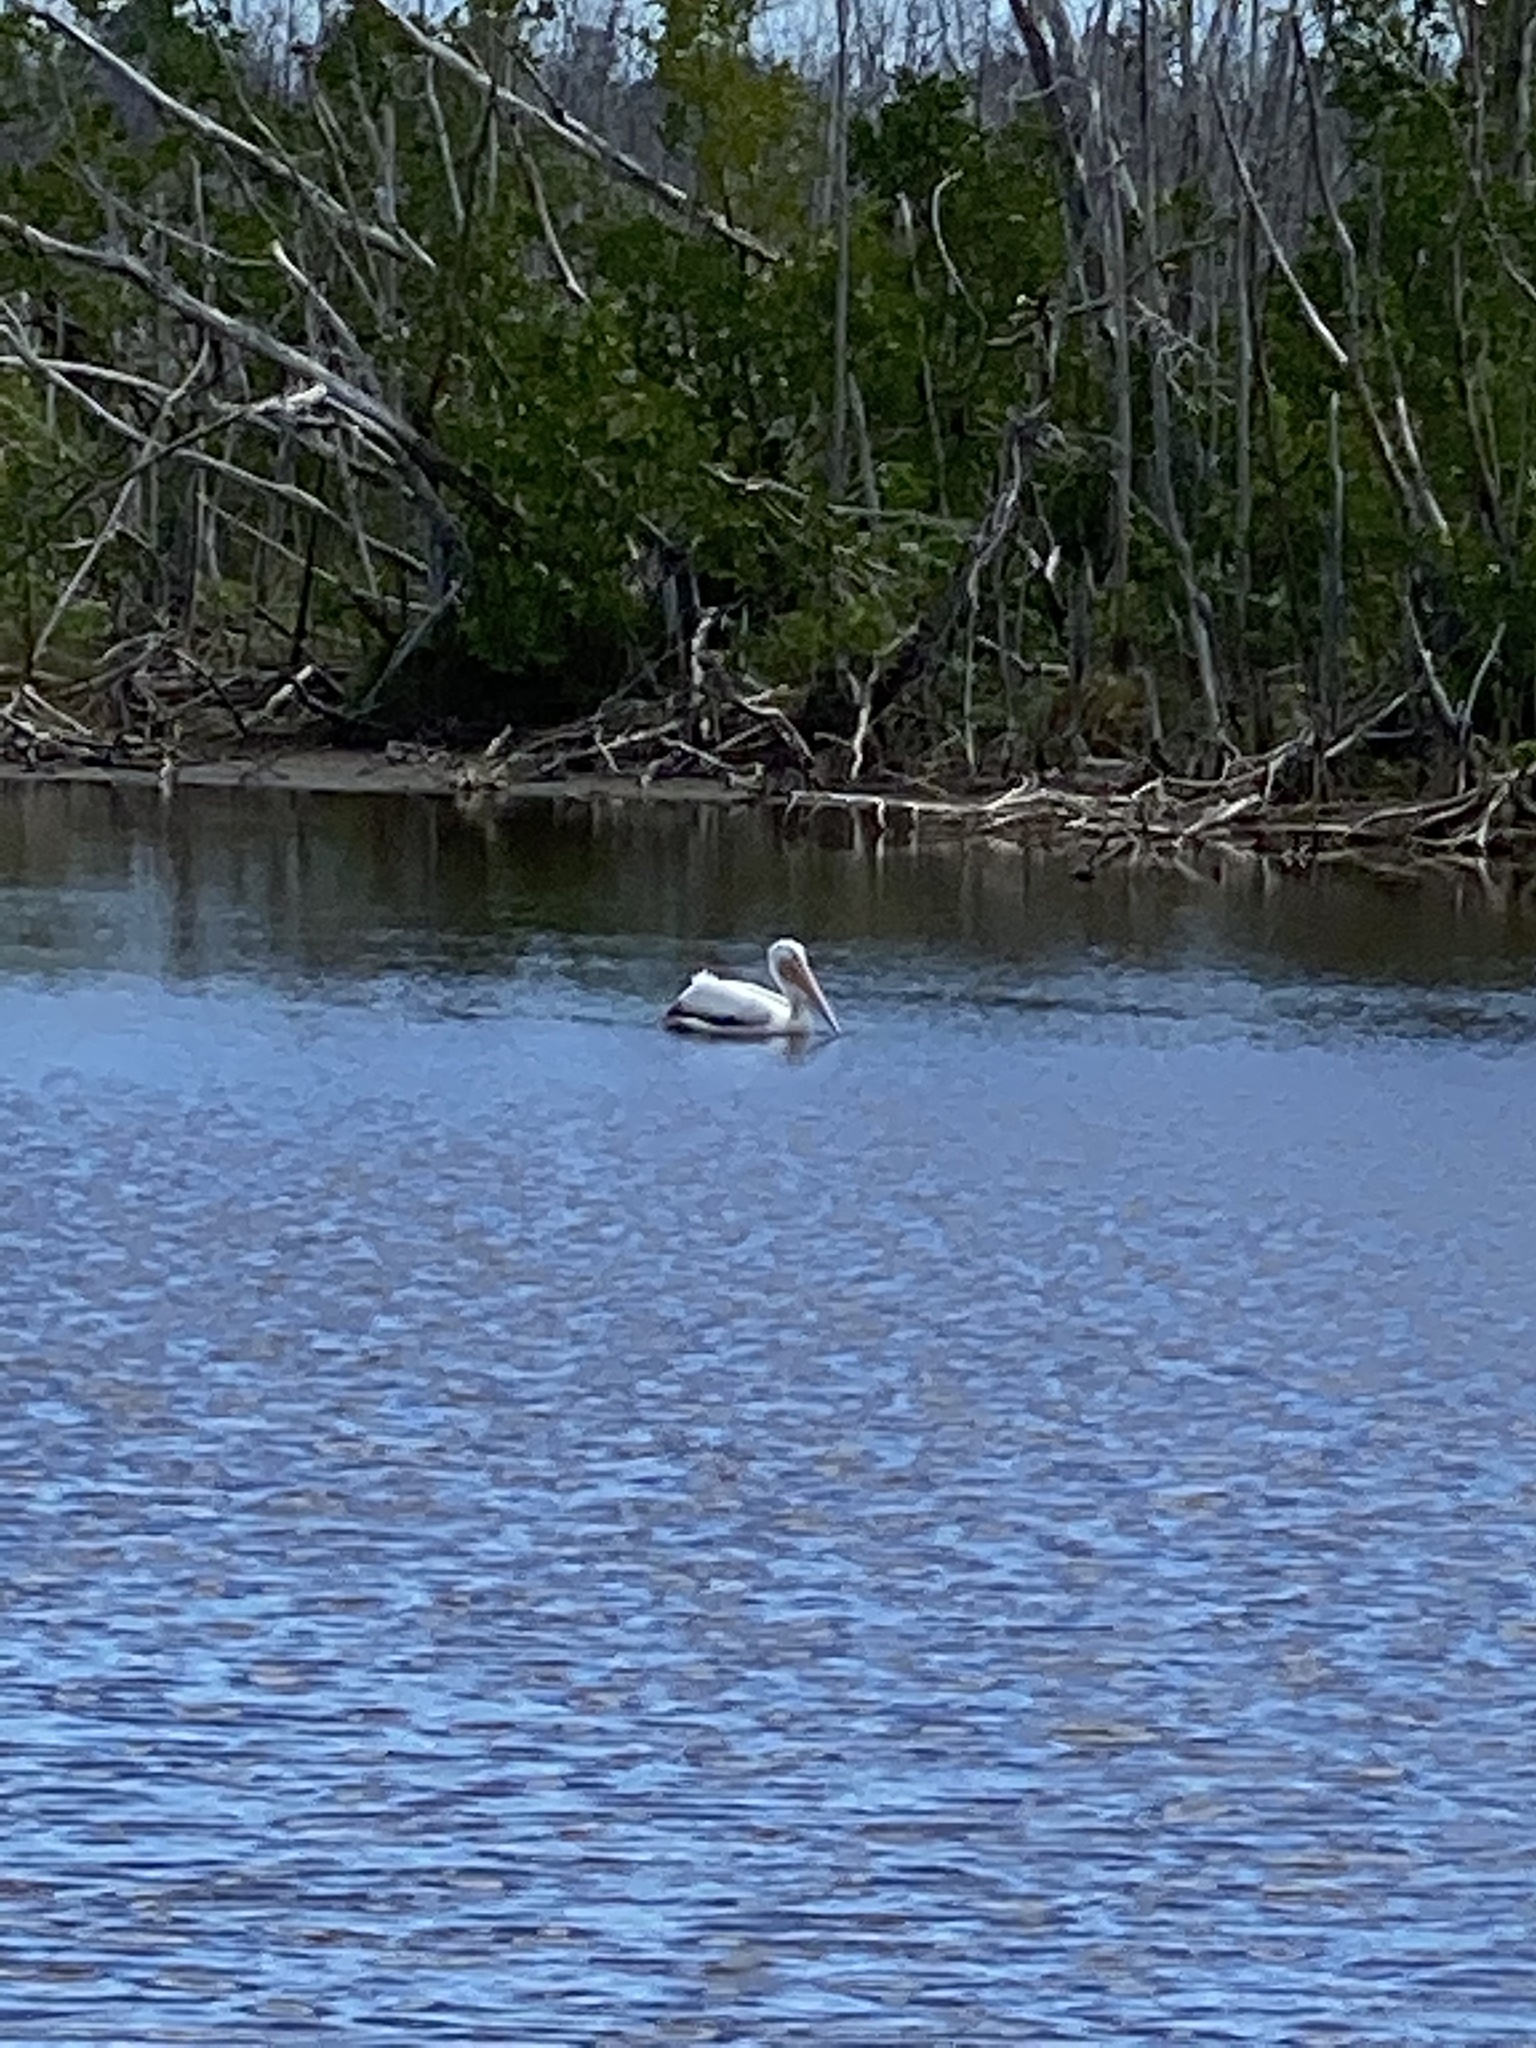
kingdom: Animalia
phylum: Chordata
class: Aves
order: Pelecaniformes
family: Pelecanidae
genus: Pelecanus
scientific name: Pelecanus erythrorhynchos
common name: American white pelican
